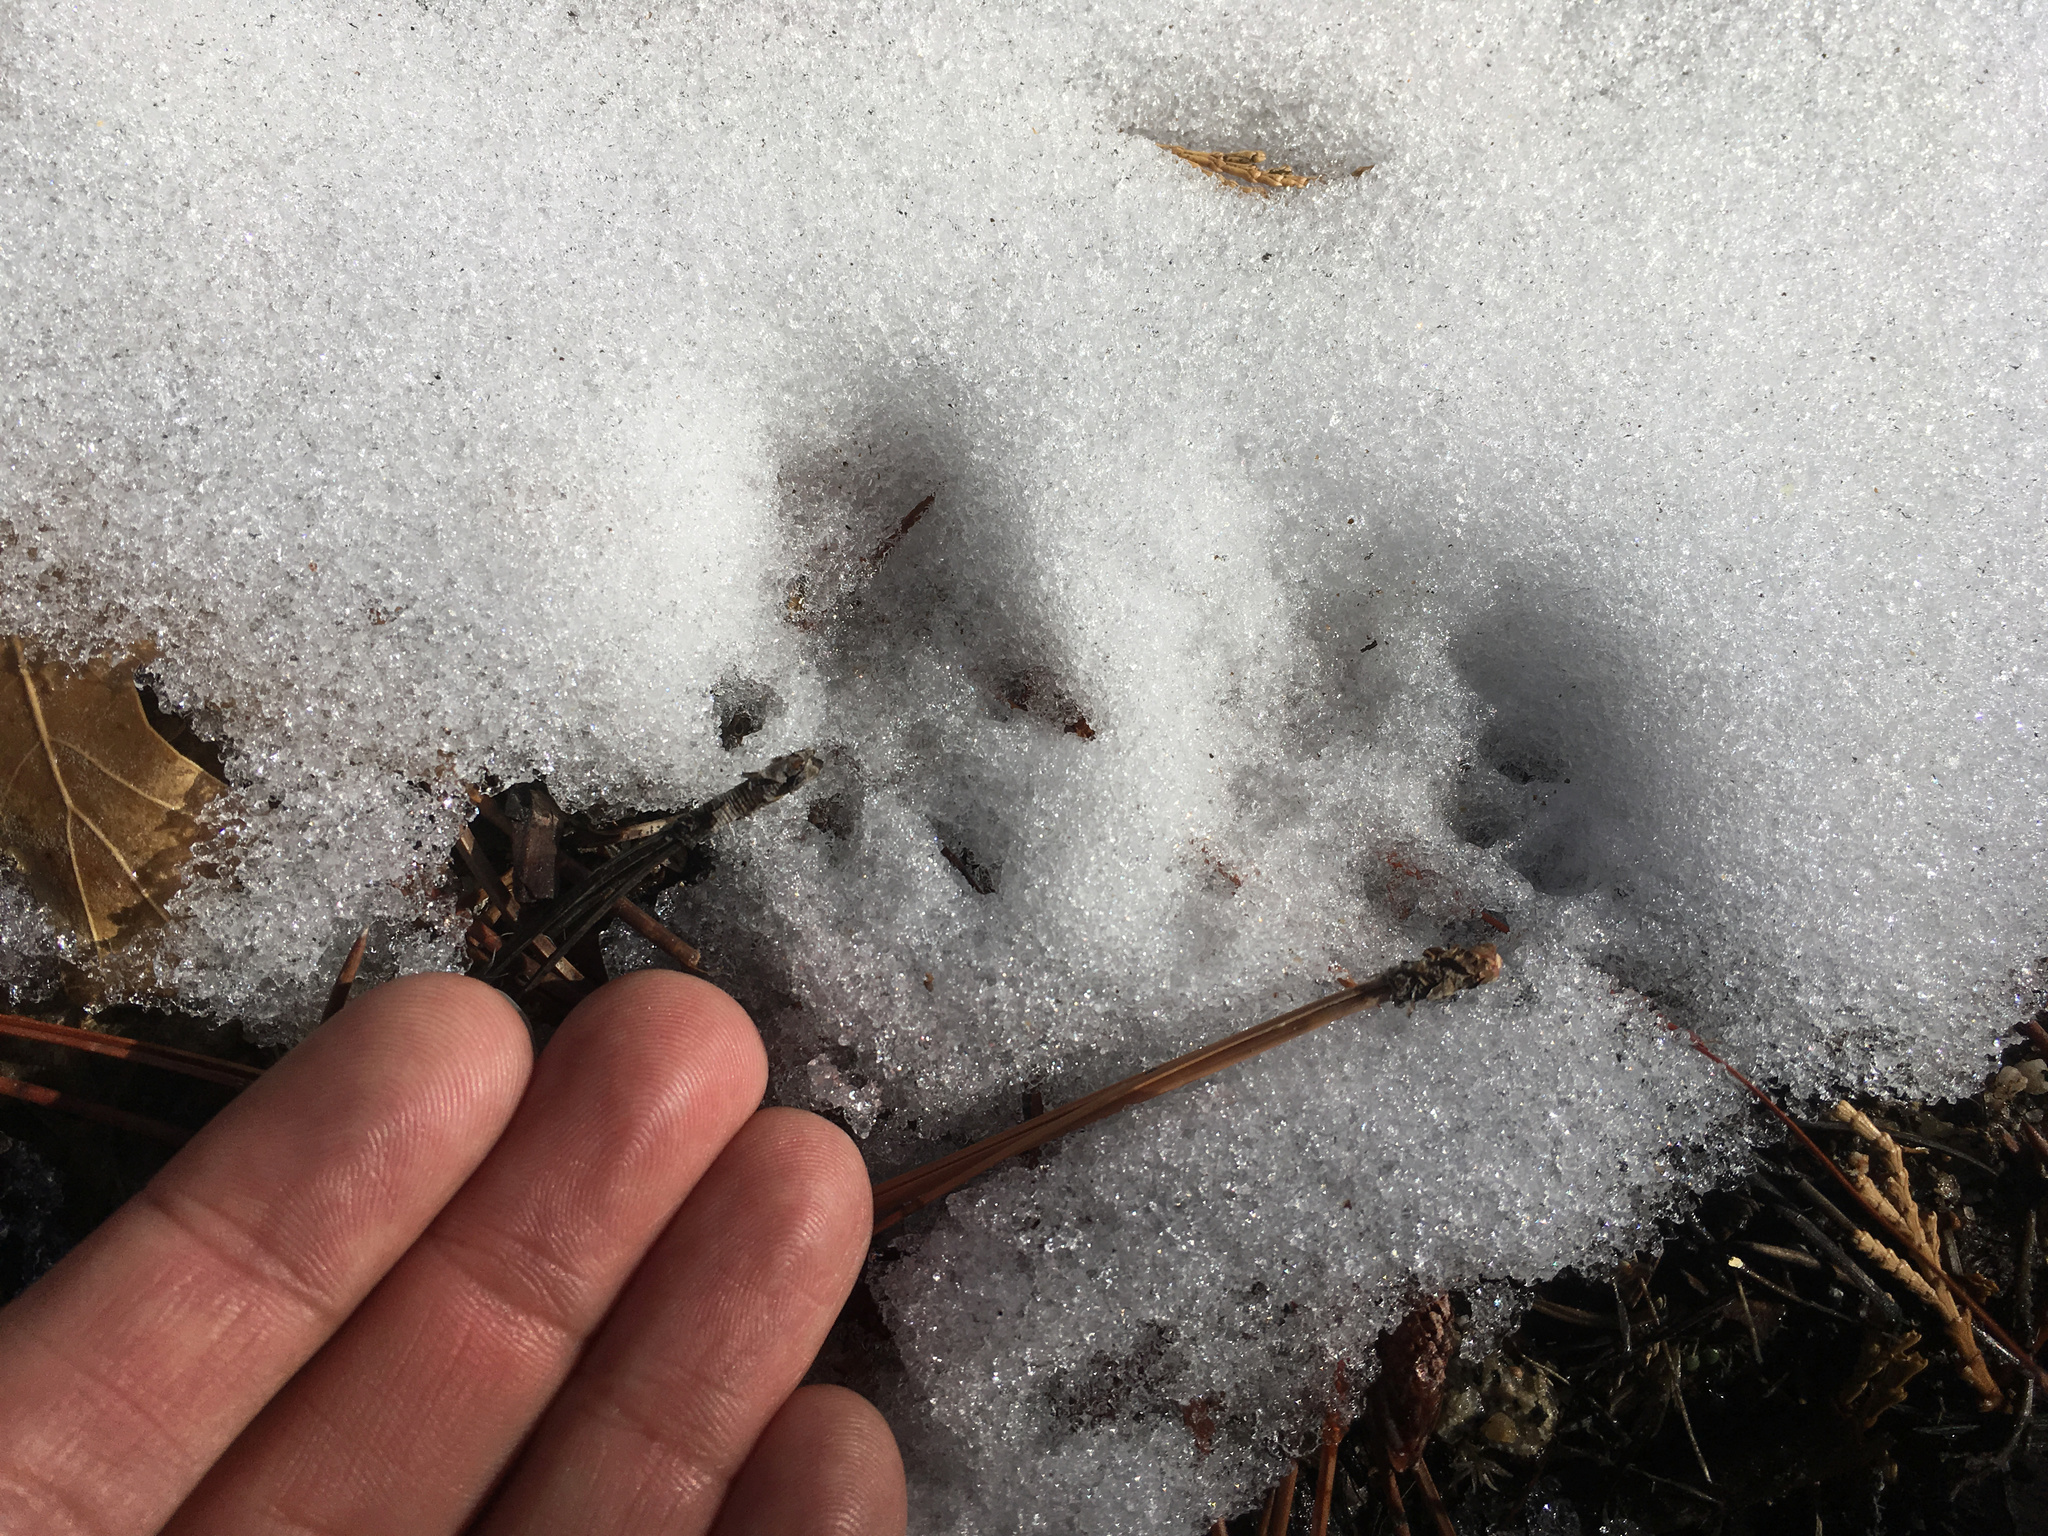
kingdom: Animalia
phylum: Chordata
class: Mammalia
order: Rodentia
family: Sciuridae
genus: Sciurus
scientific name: Sciurus griseus
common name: Western gray squirrel
